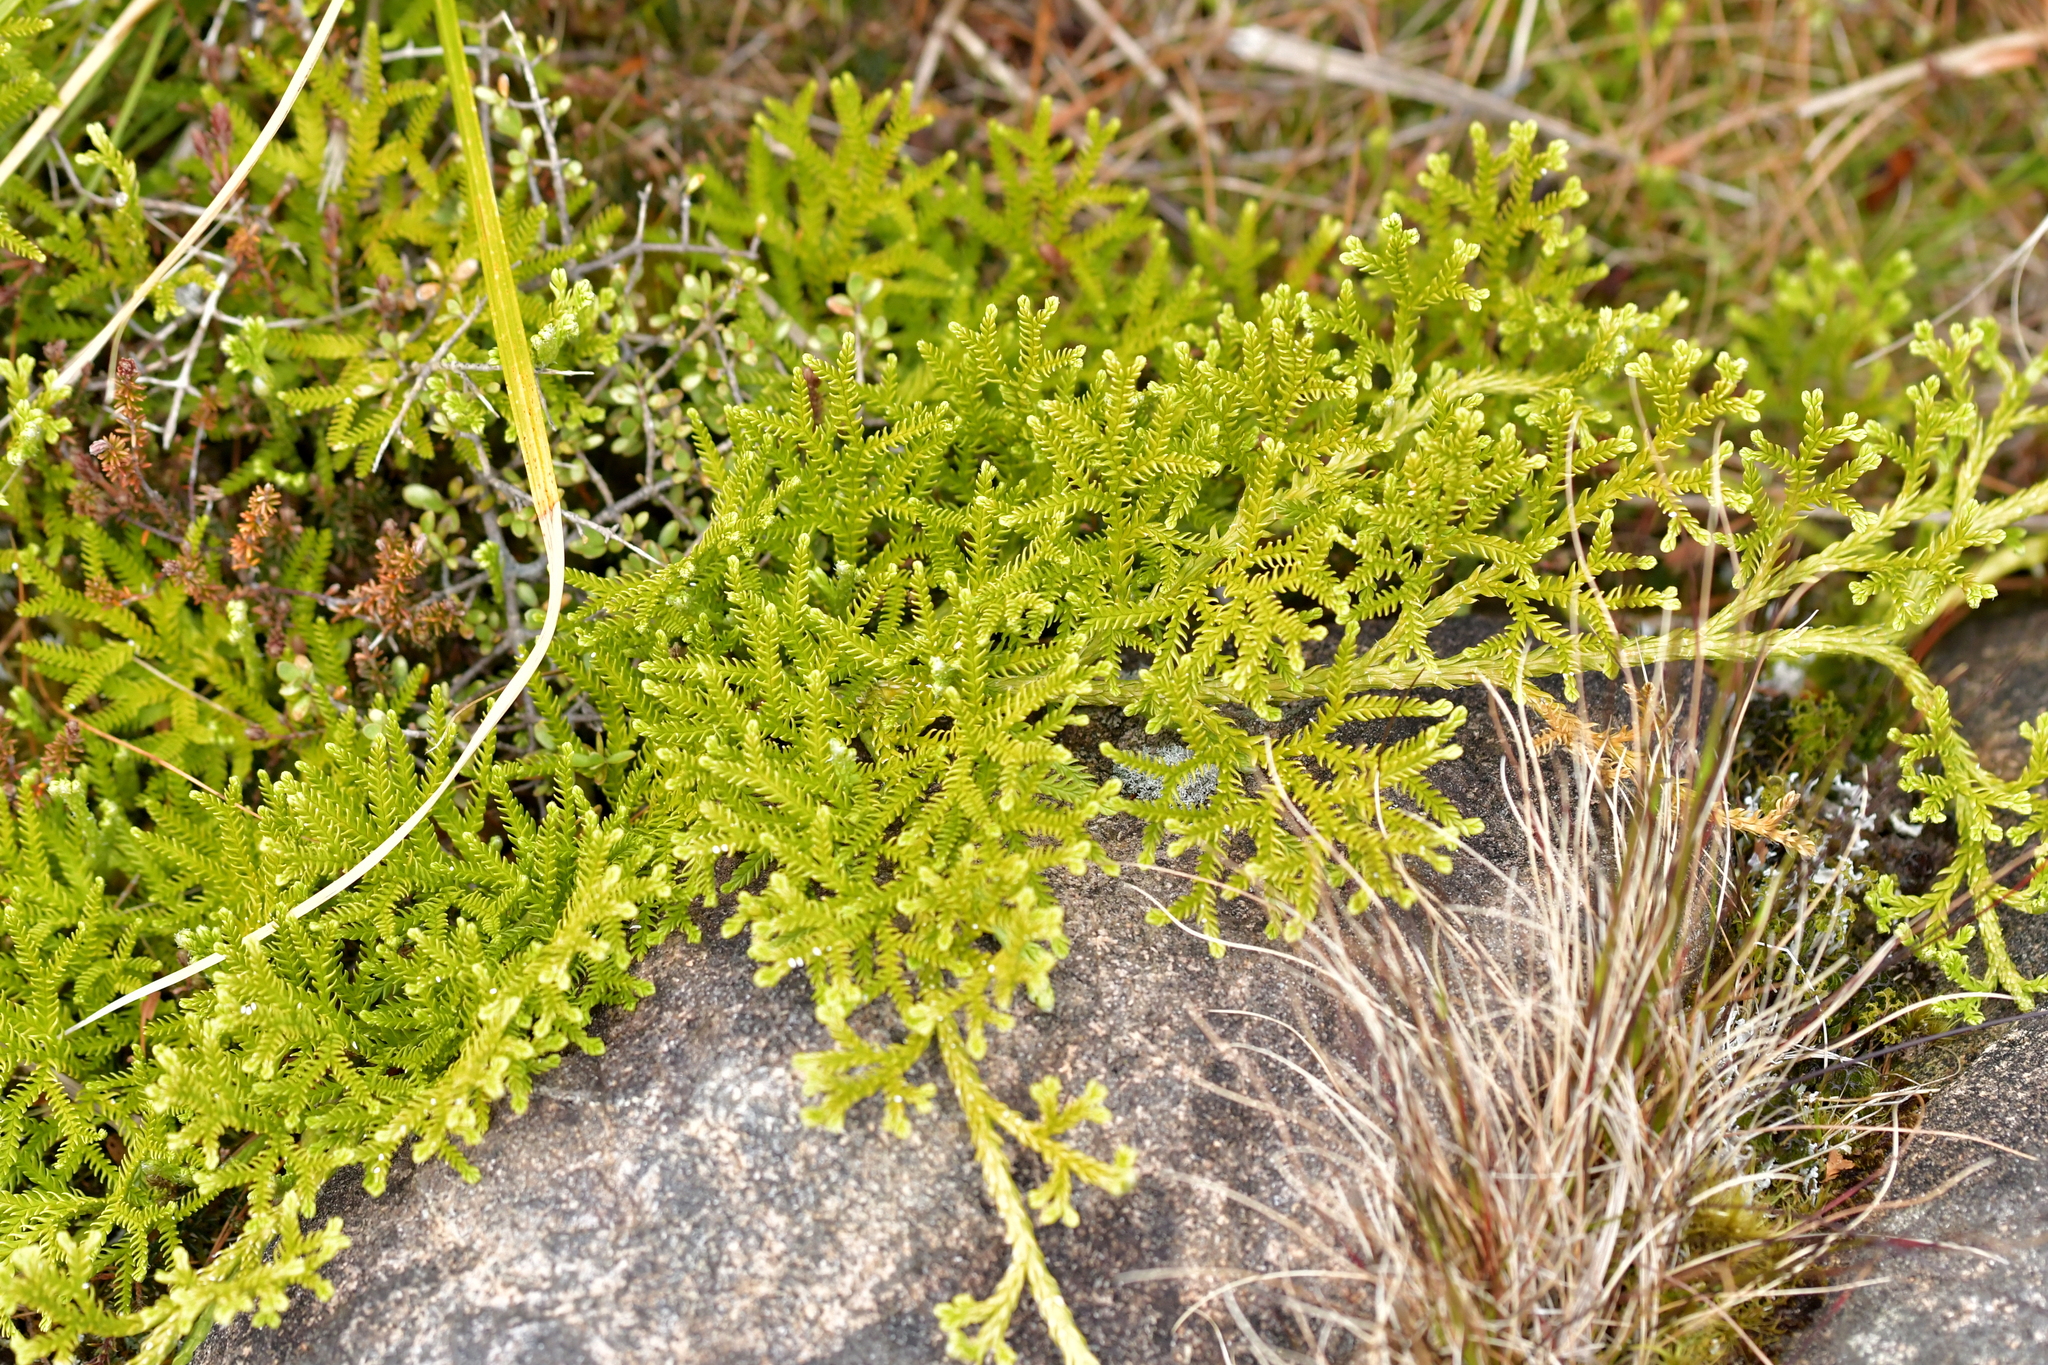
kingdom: Plantae
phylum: Tracheophyta
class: Lycopodiopsida
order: Lycopodiales
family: Lycopodiaceae
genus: Diphasium
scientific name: Diphasium scariosum
